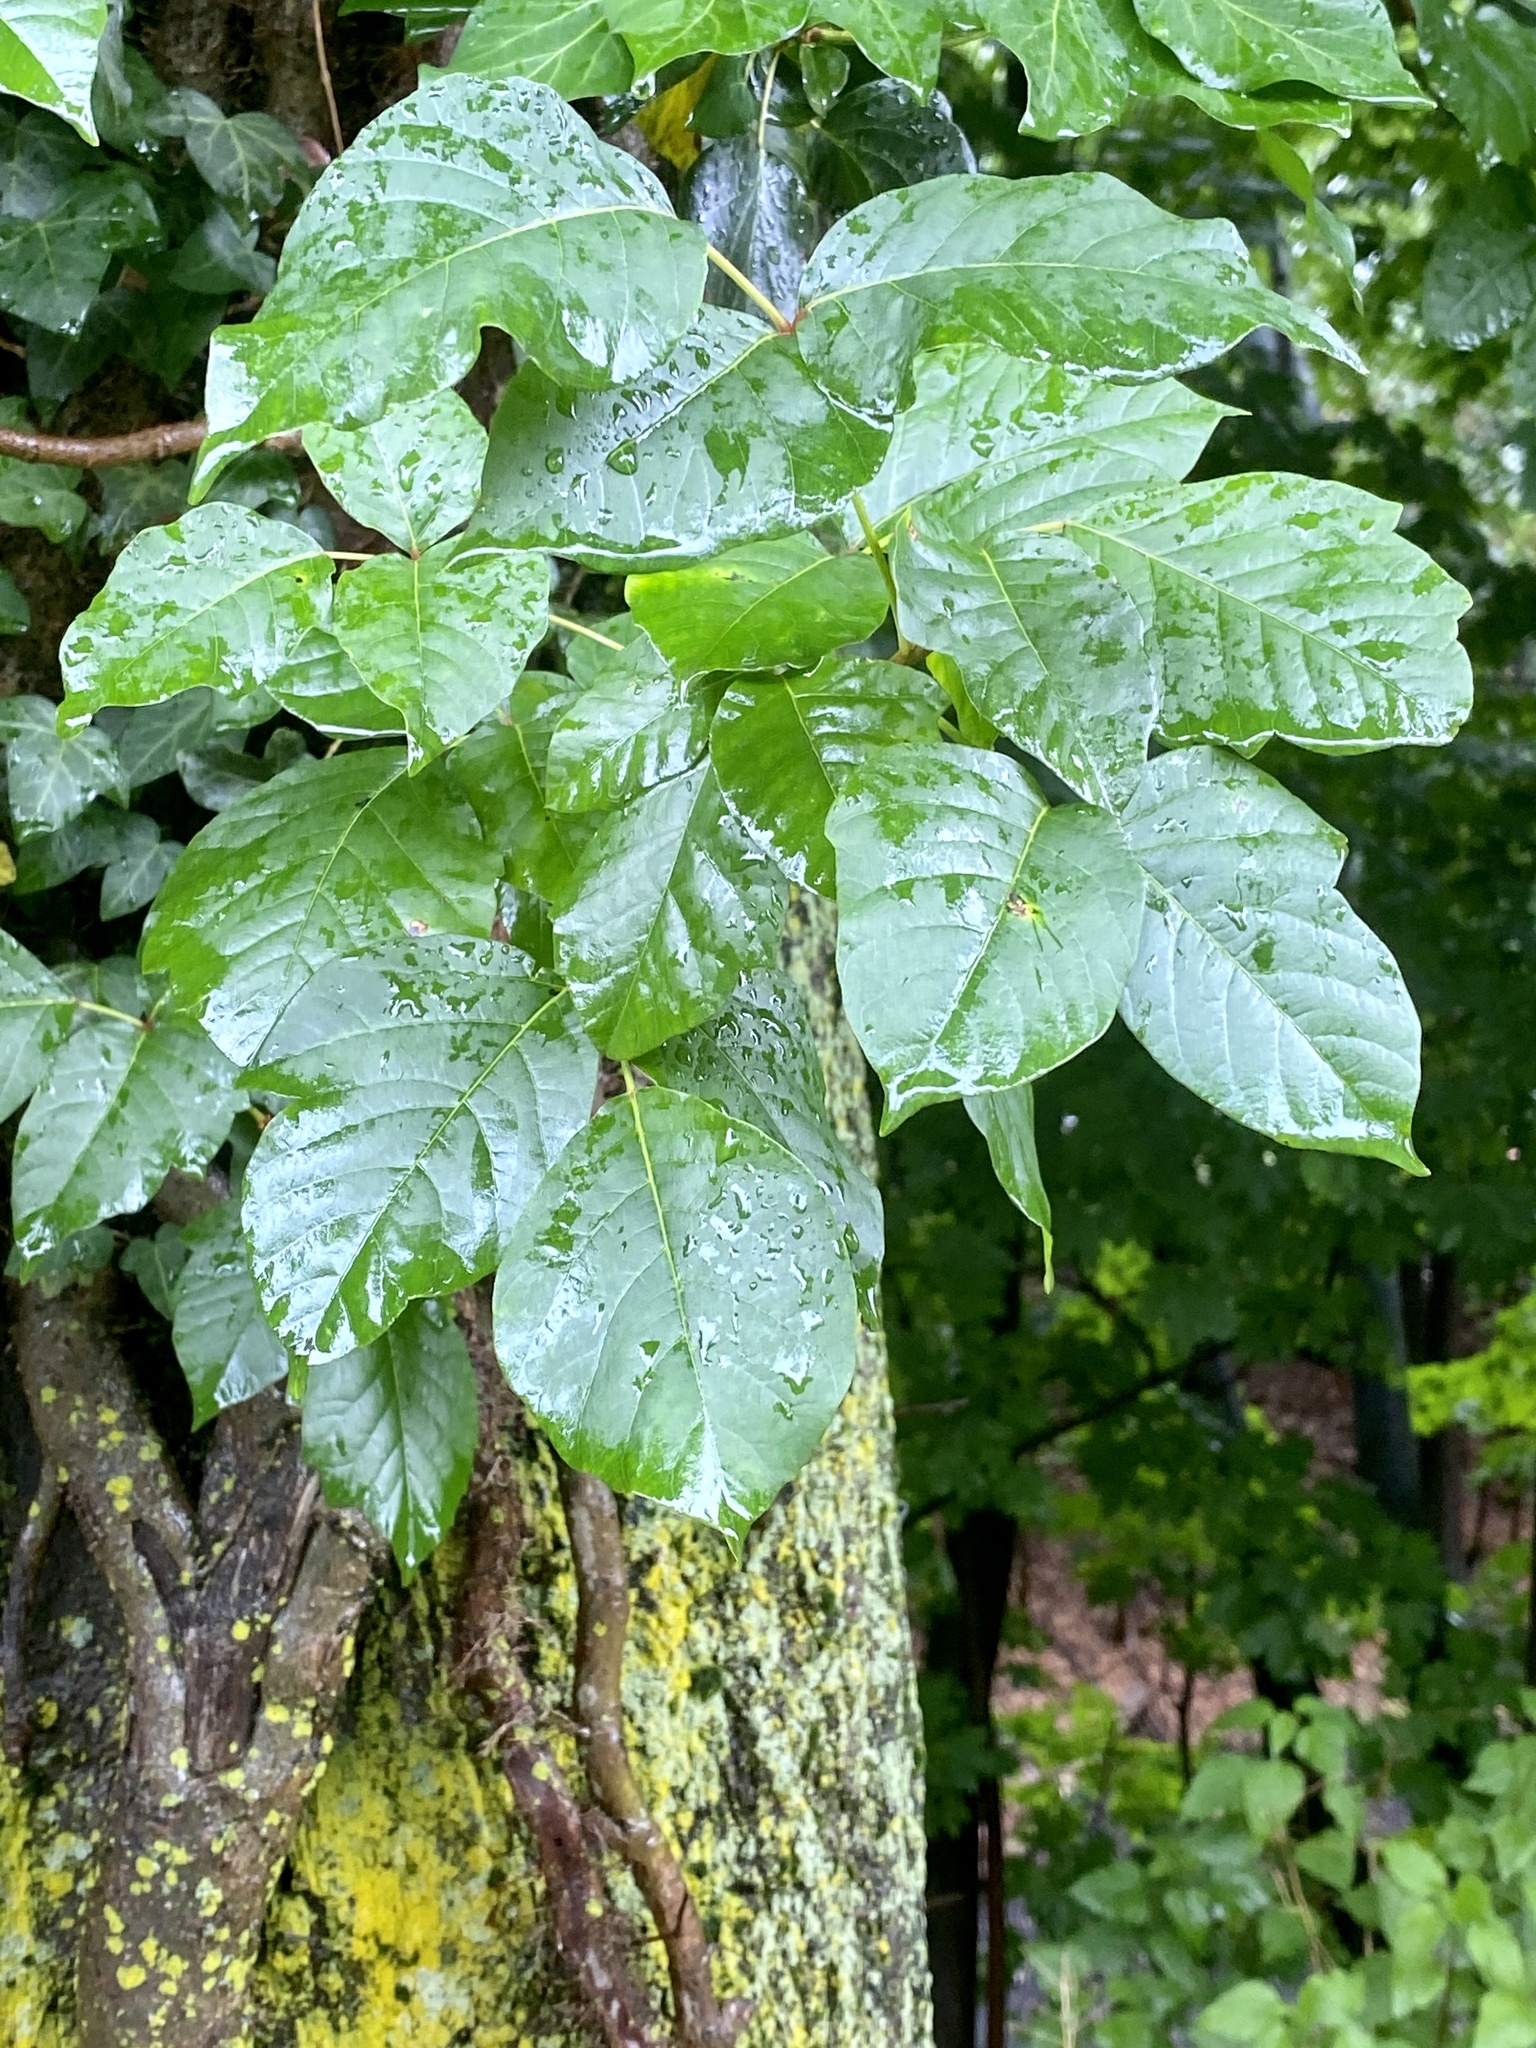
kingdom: Plantae
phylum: Tracheophyta
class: Magnoliopsida
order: Sapindales
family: Anacardiaceae
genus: Toxicodendron
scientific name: Toxicodendron radicans
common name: Poison ivy
